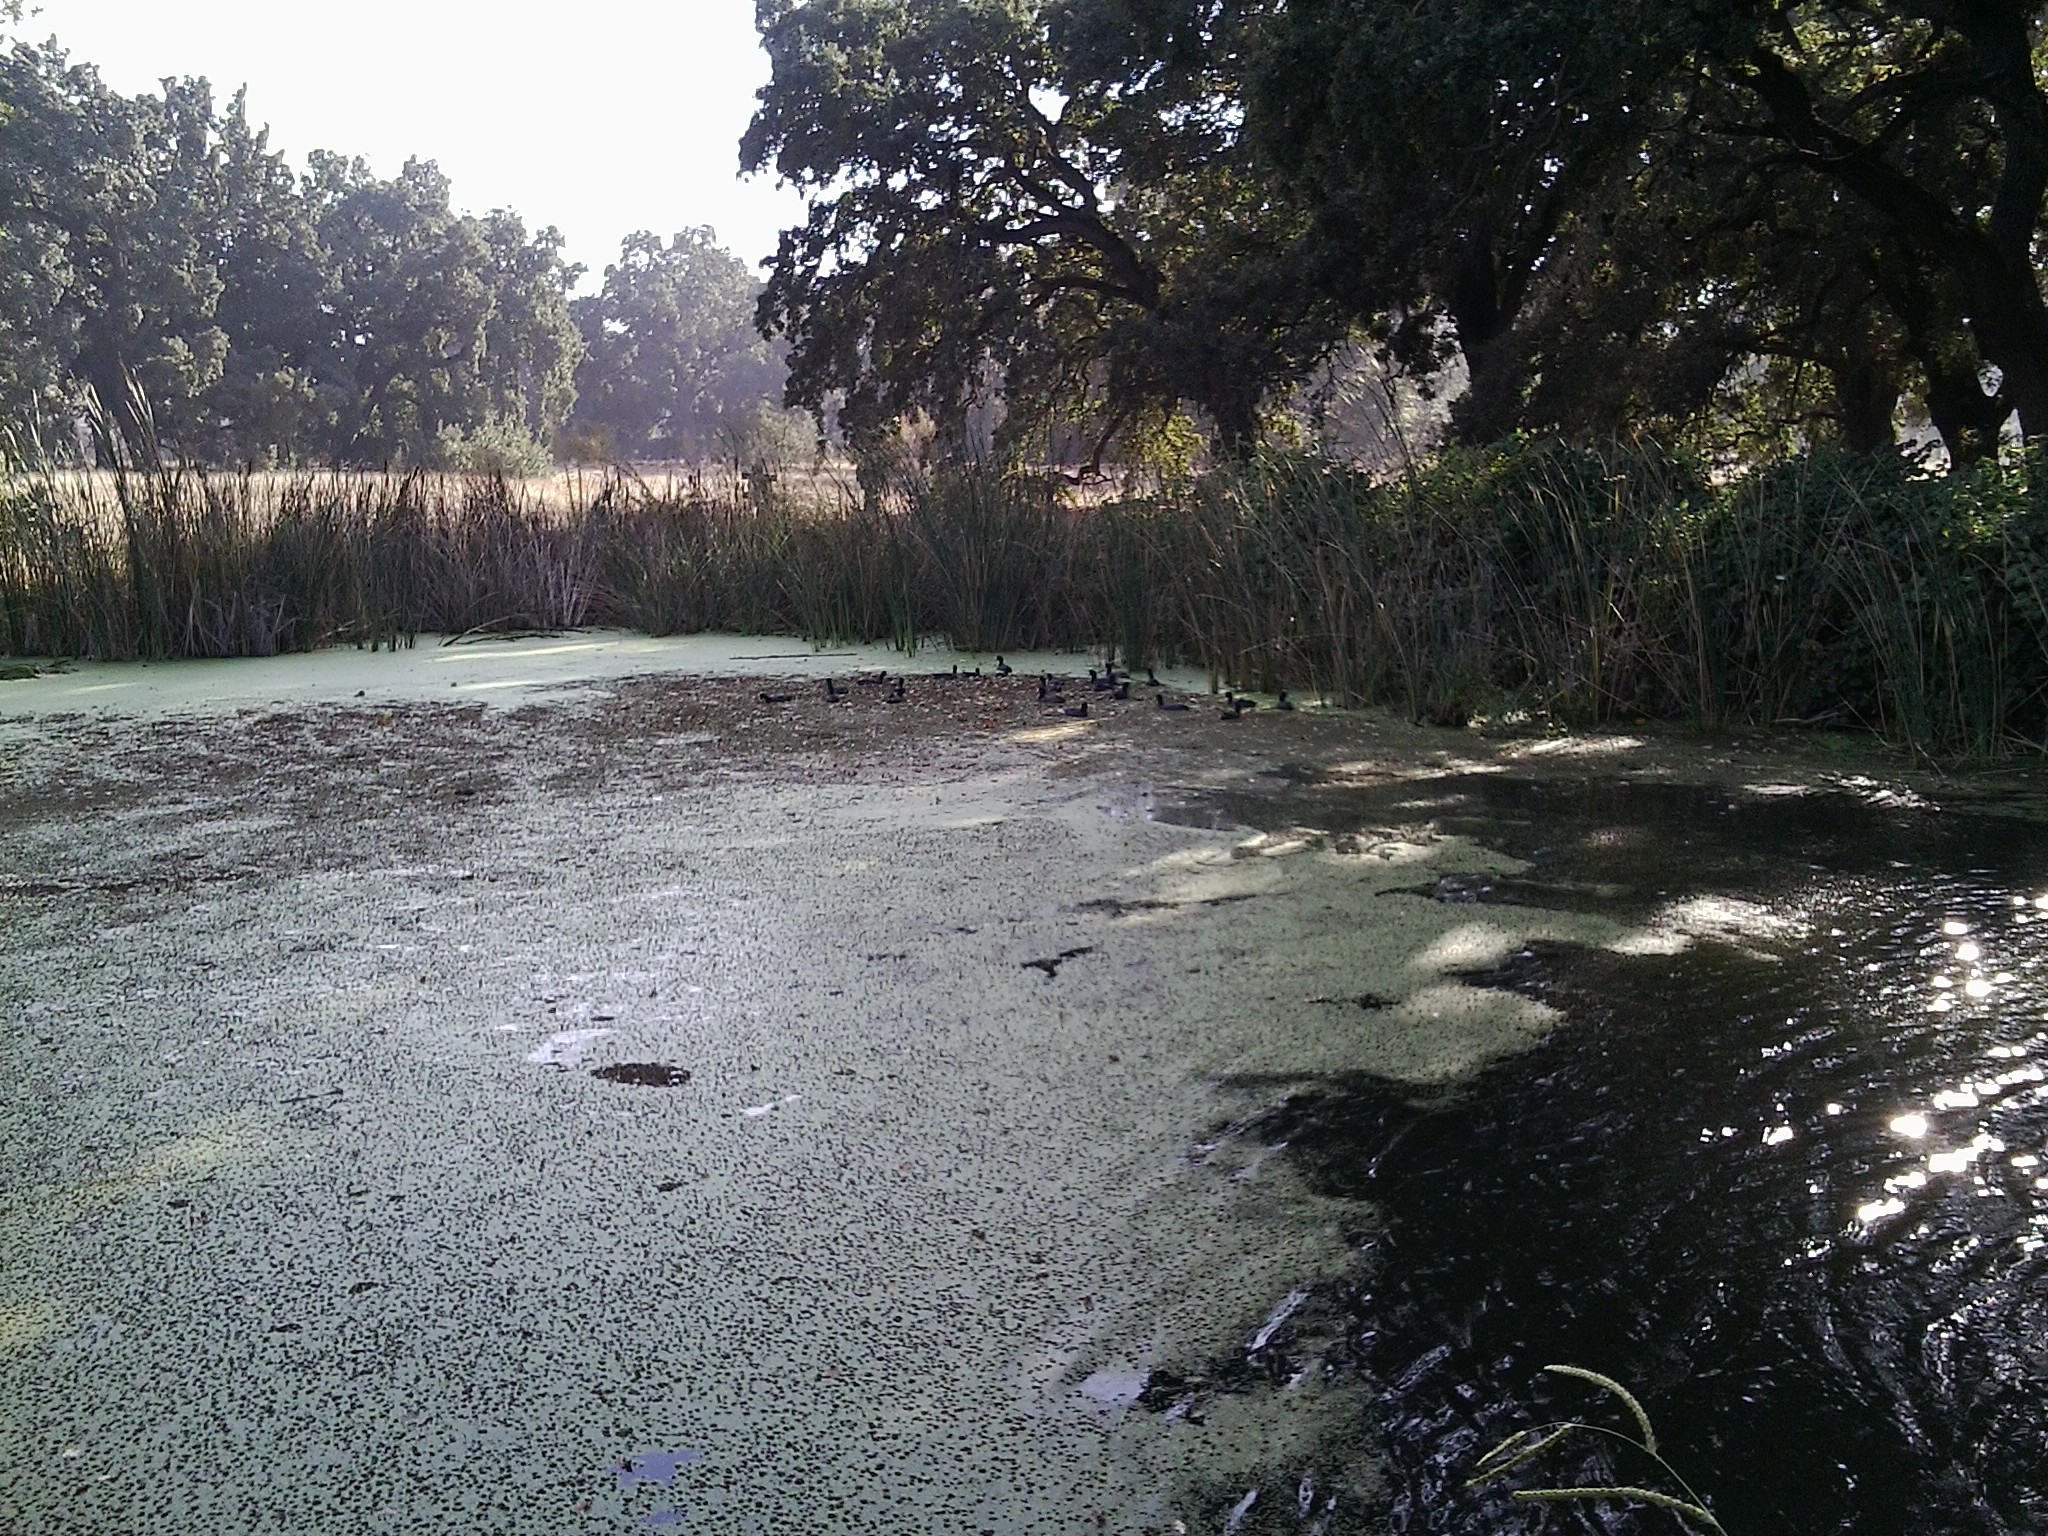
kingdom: Animalia
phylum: Chordata
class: Aves
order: Gruiformes
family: Rallidae
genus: Fulica
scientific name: Fulica americana
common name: American coot
